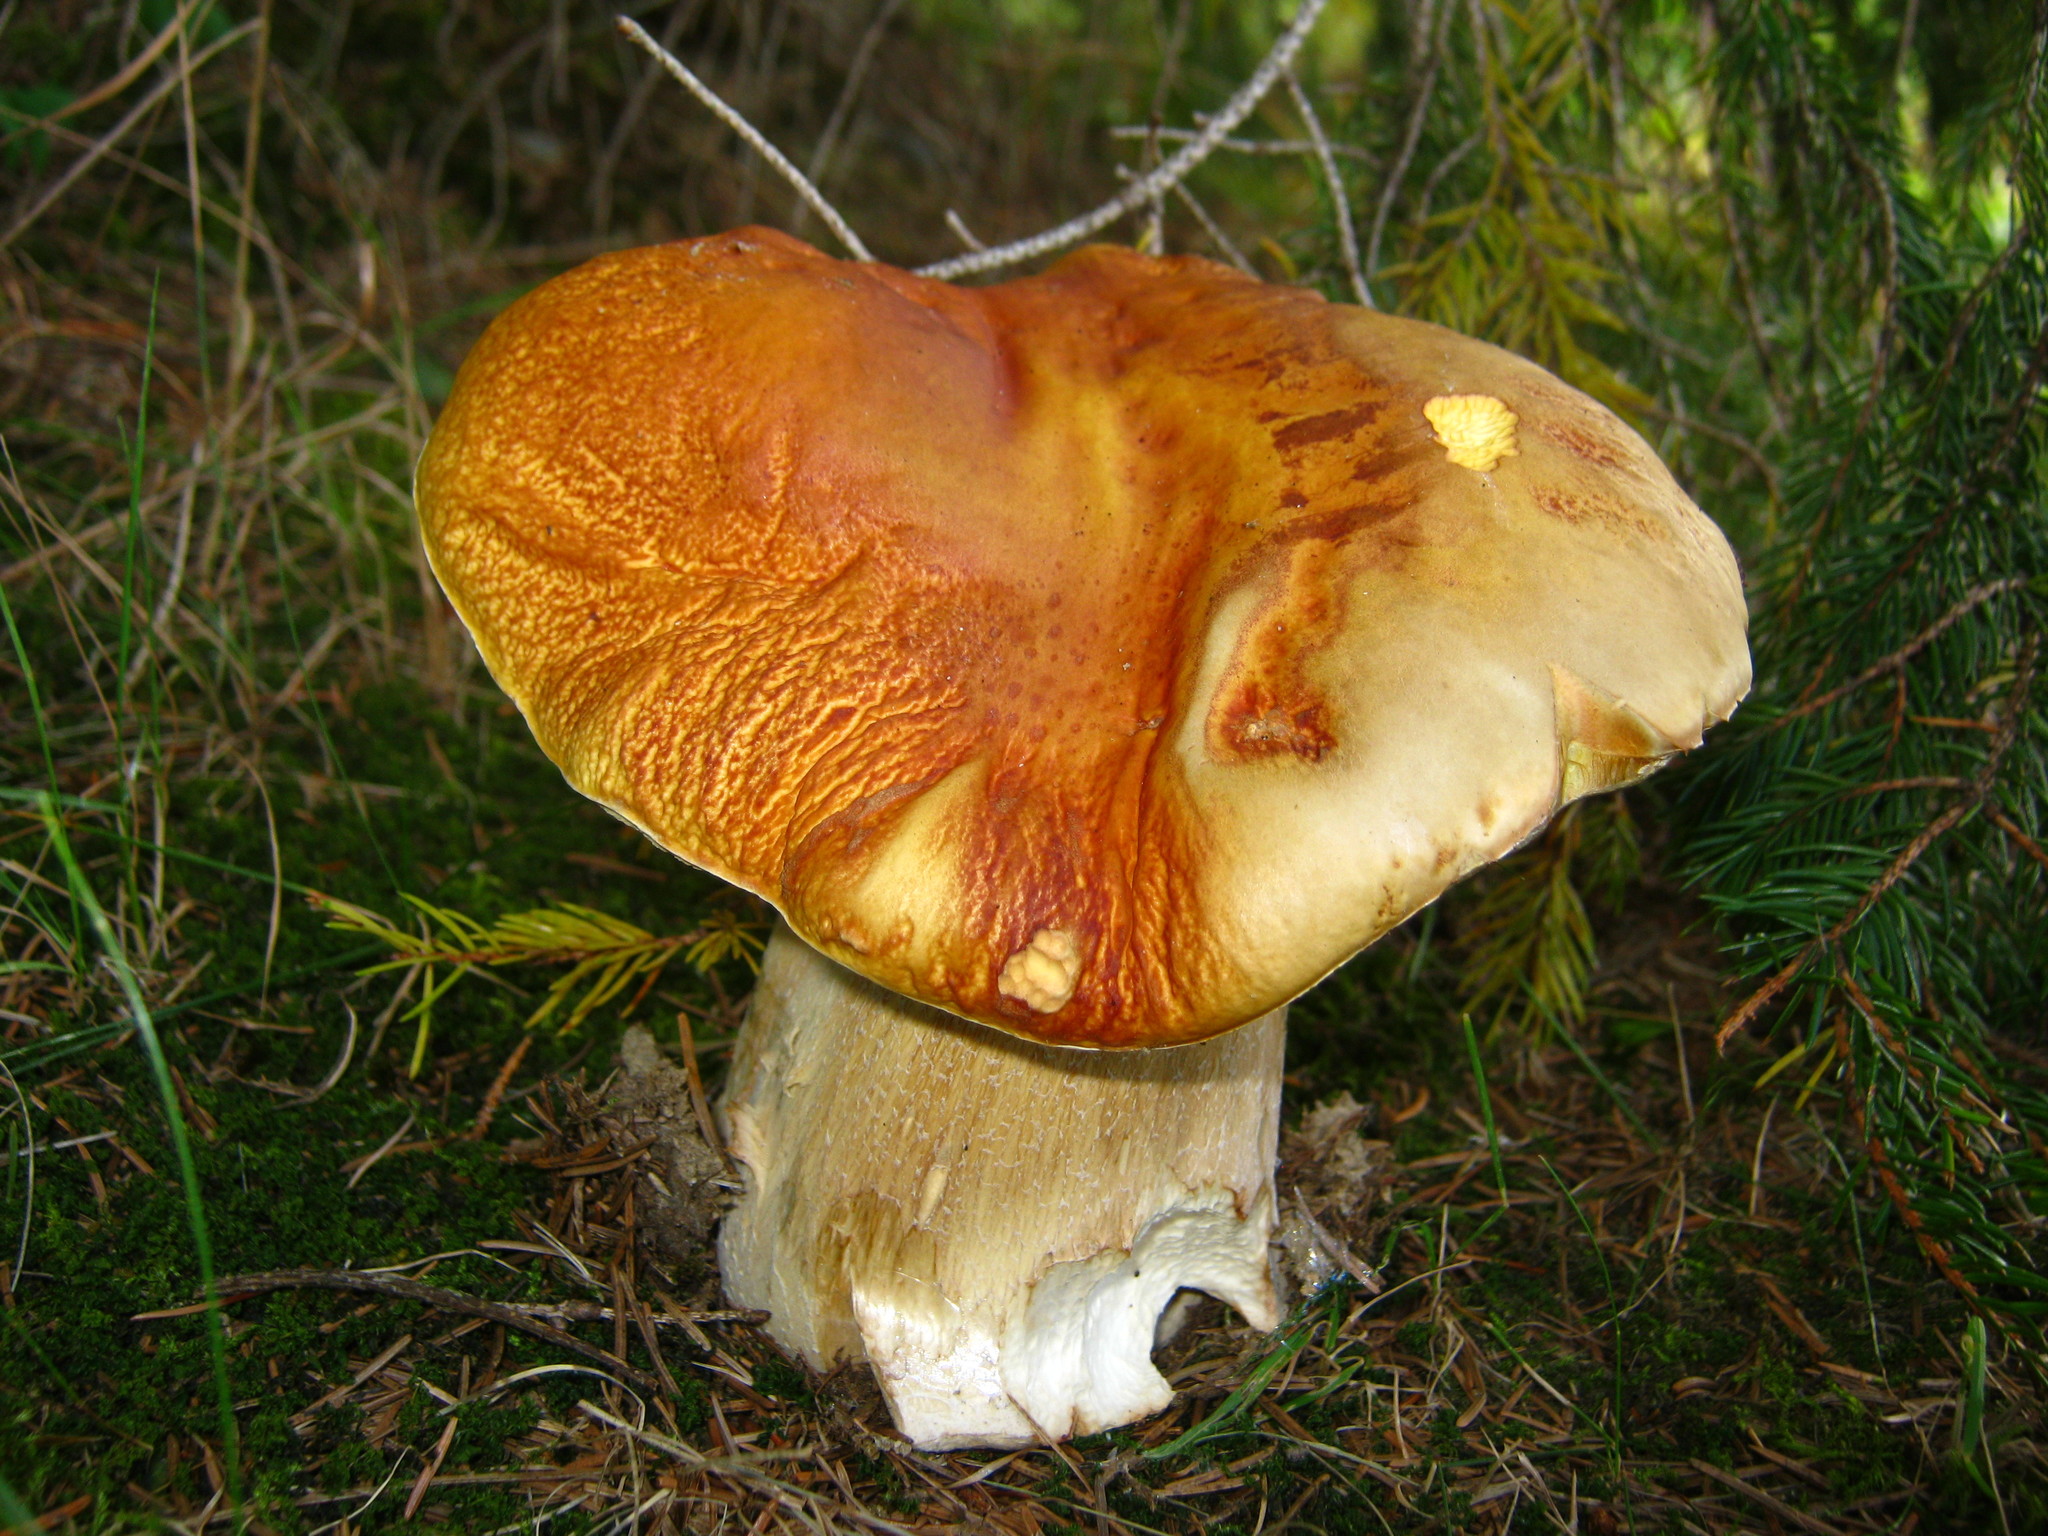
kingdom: Fungi
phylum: Basidiomycota
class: Agaricomycetes
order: Boletales
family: Boletaceae
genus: Boletus
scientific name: Boletus chippewaensis
